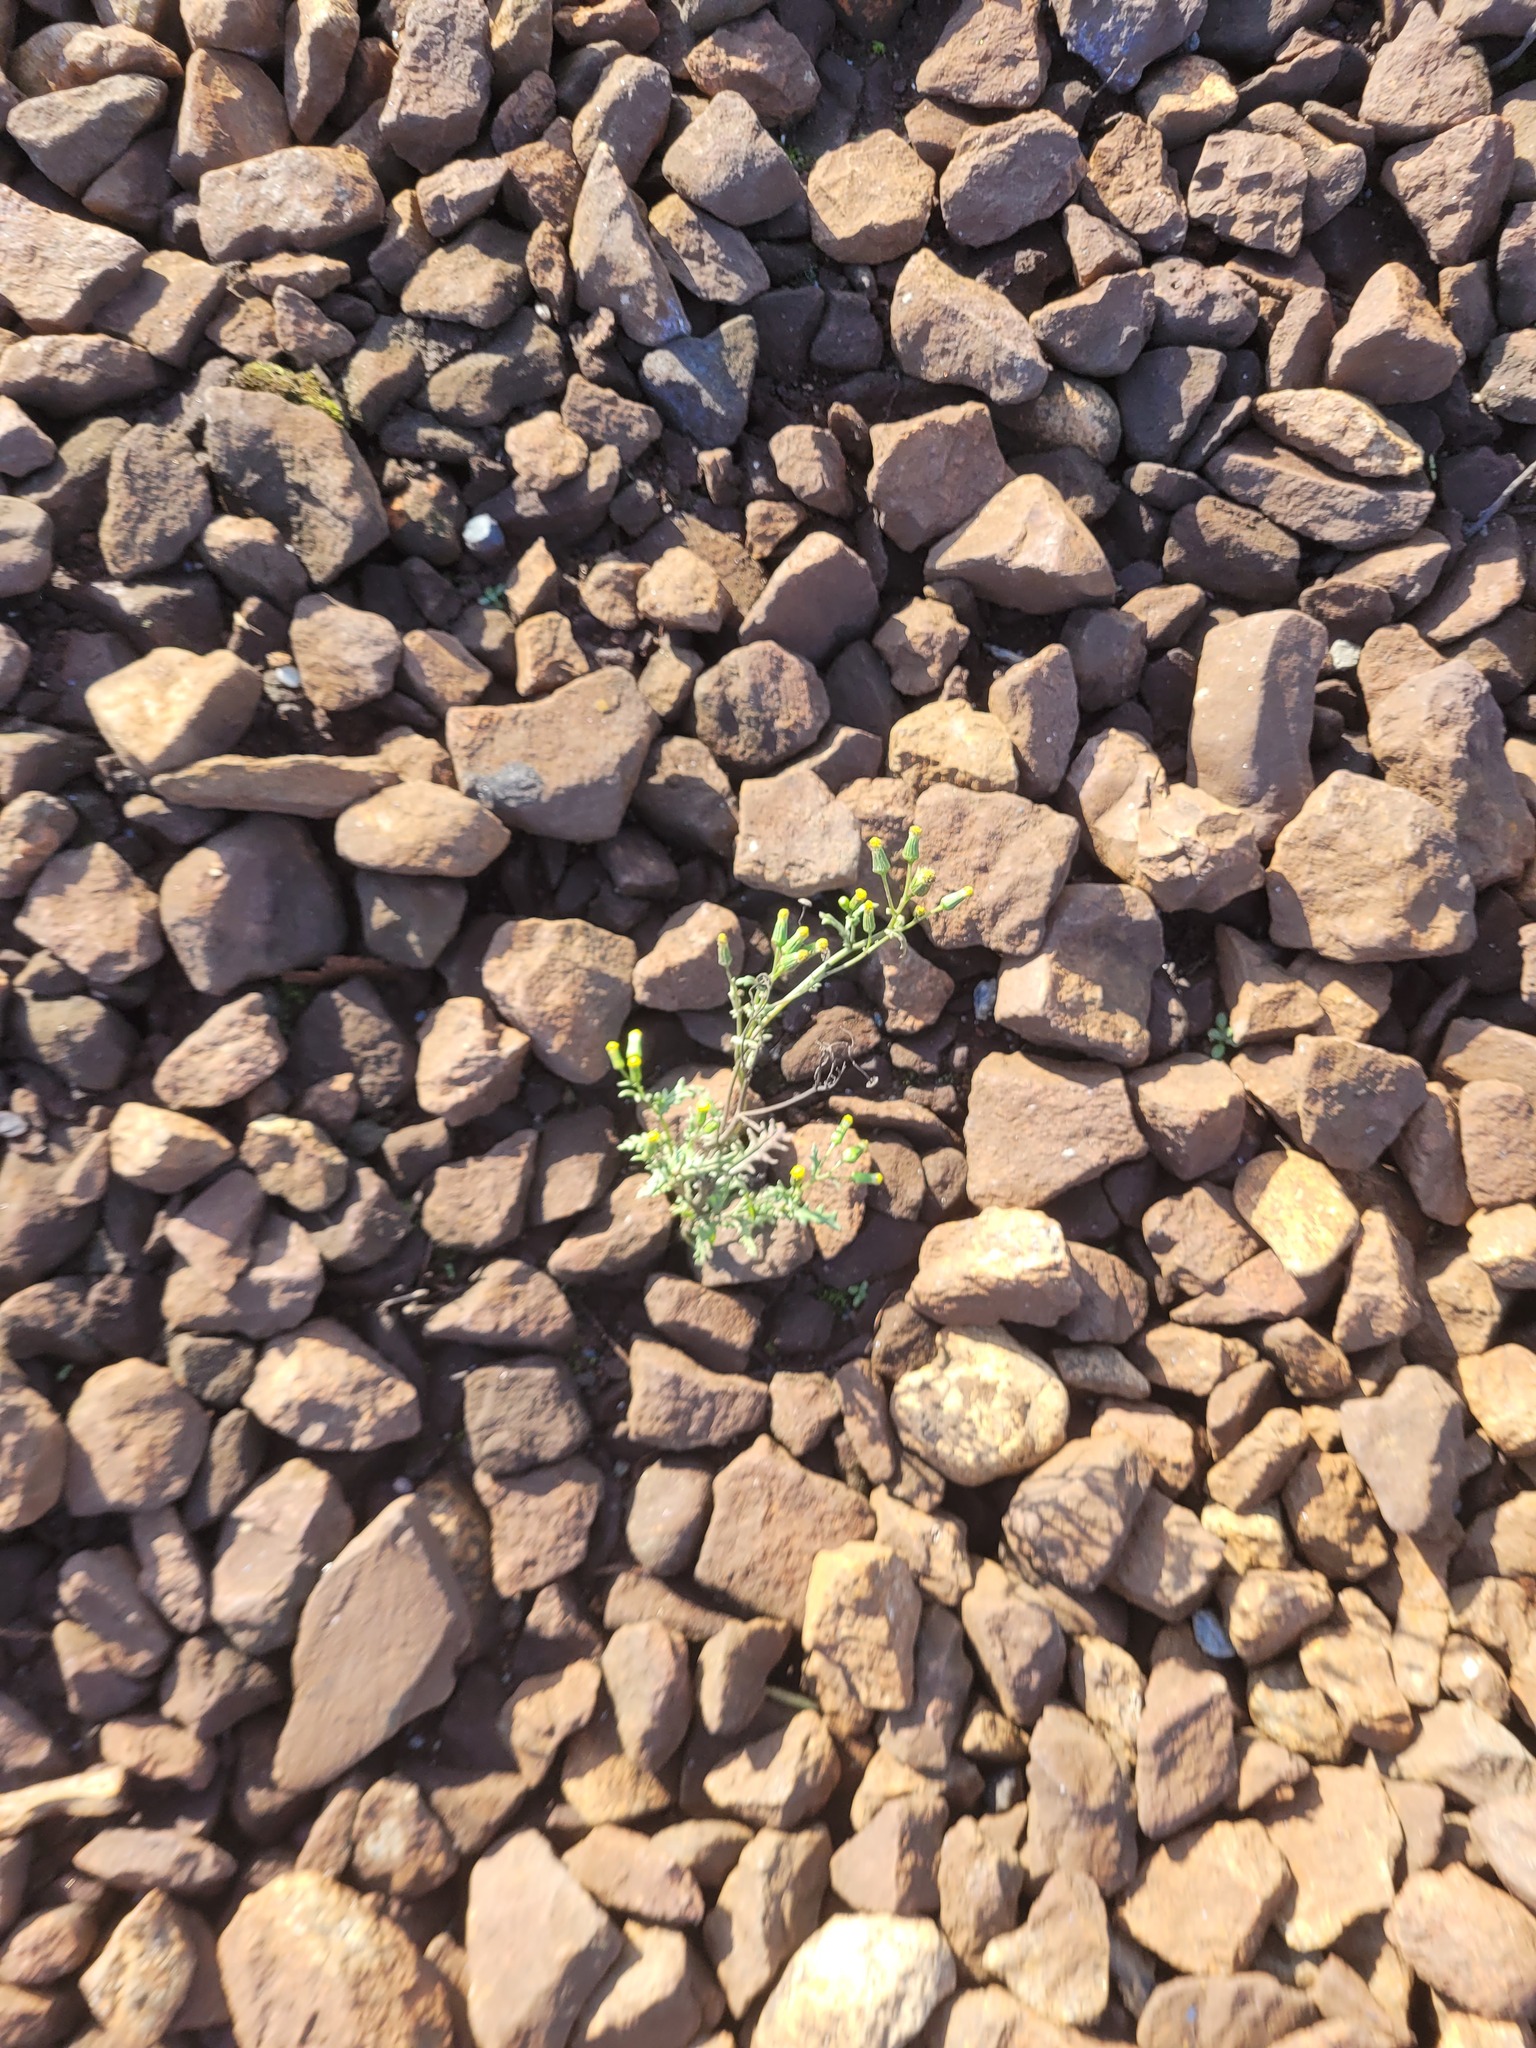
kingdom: Plantae
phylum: Tracheophyta
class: Magnoliopsida
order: Asterales
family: Asteraceae
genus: Senecio
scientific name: Senecio vulgaris
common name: Old-man-in-the-spring
